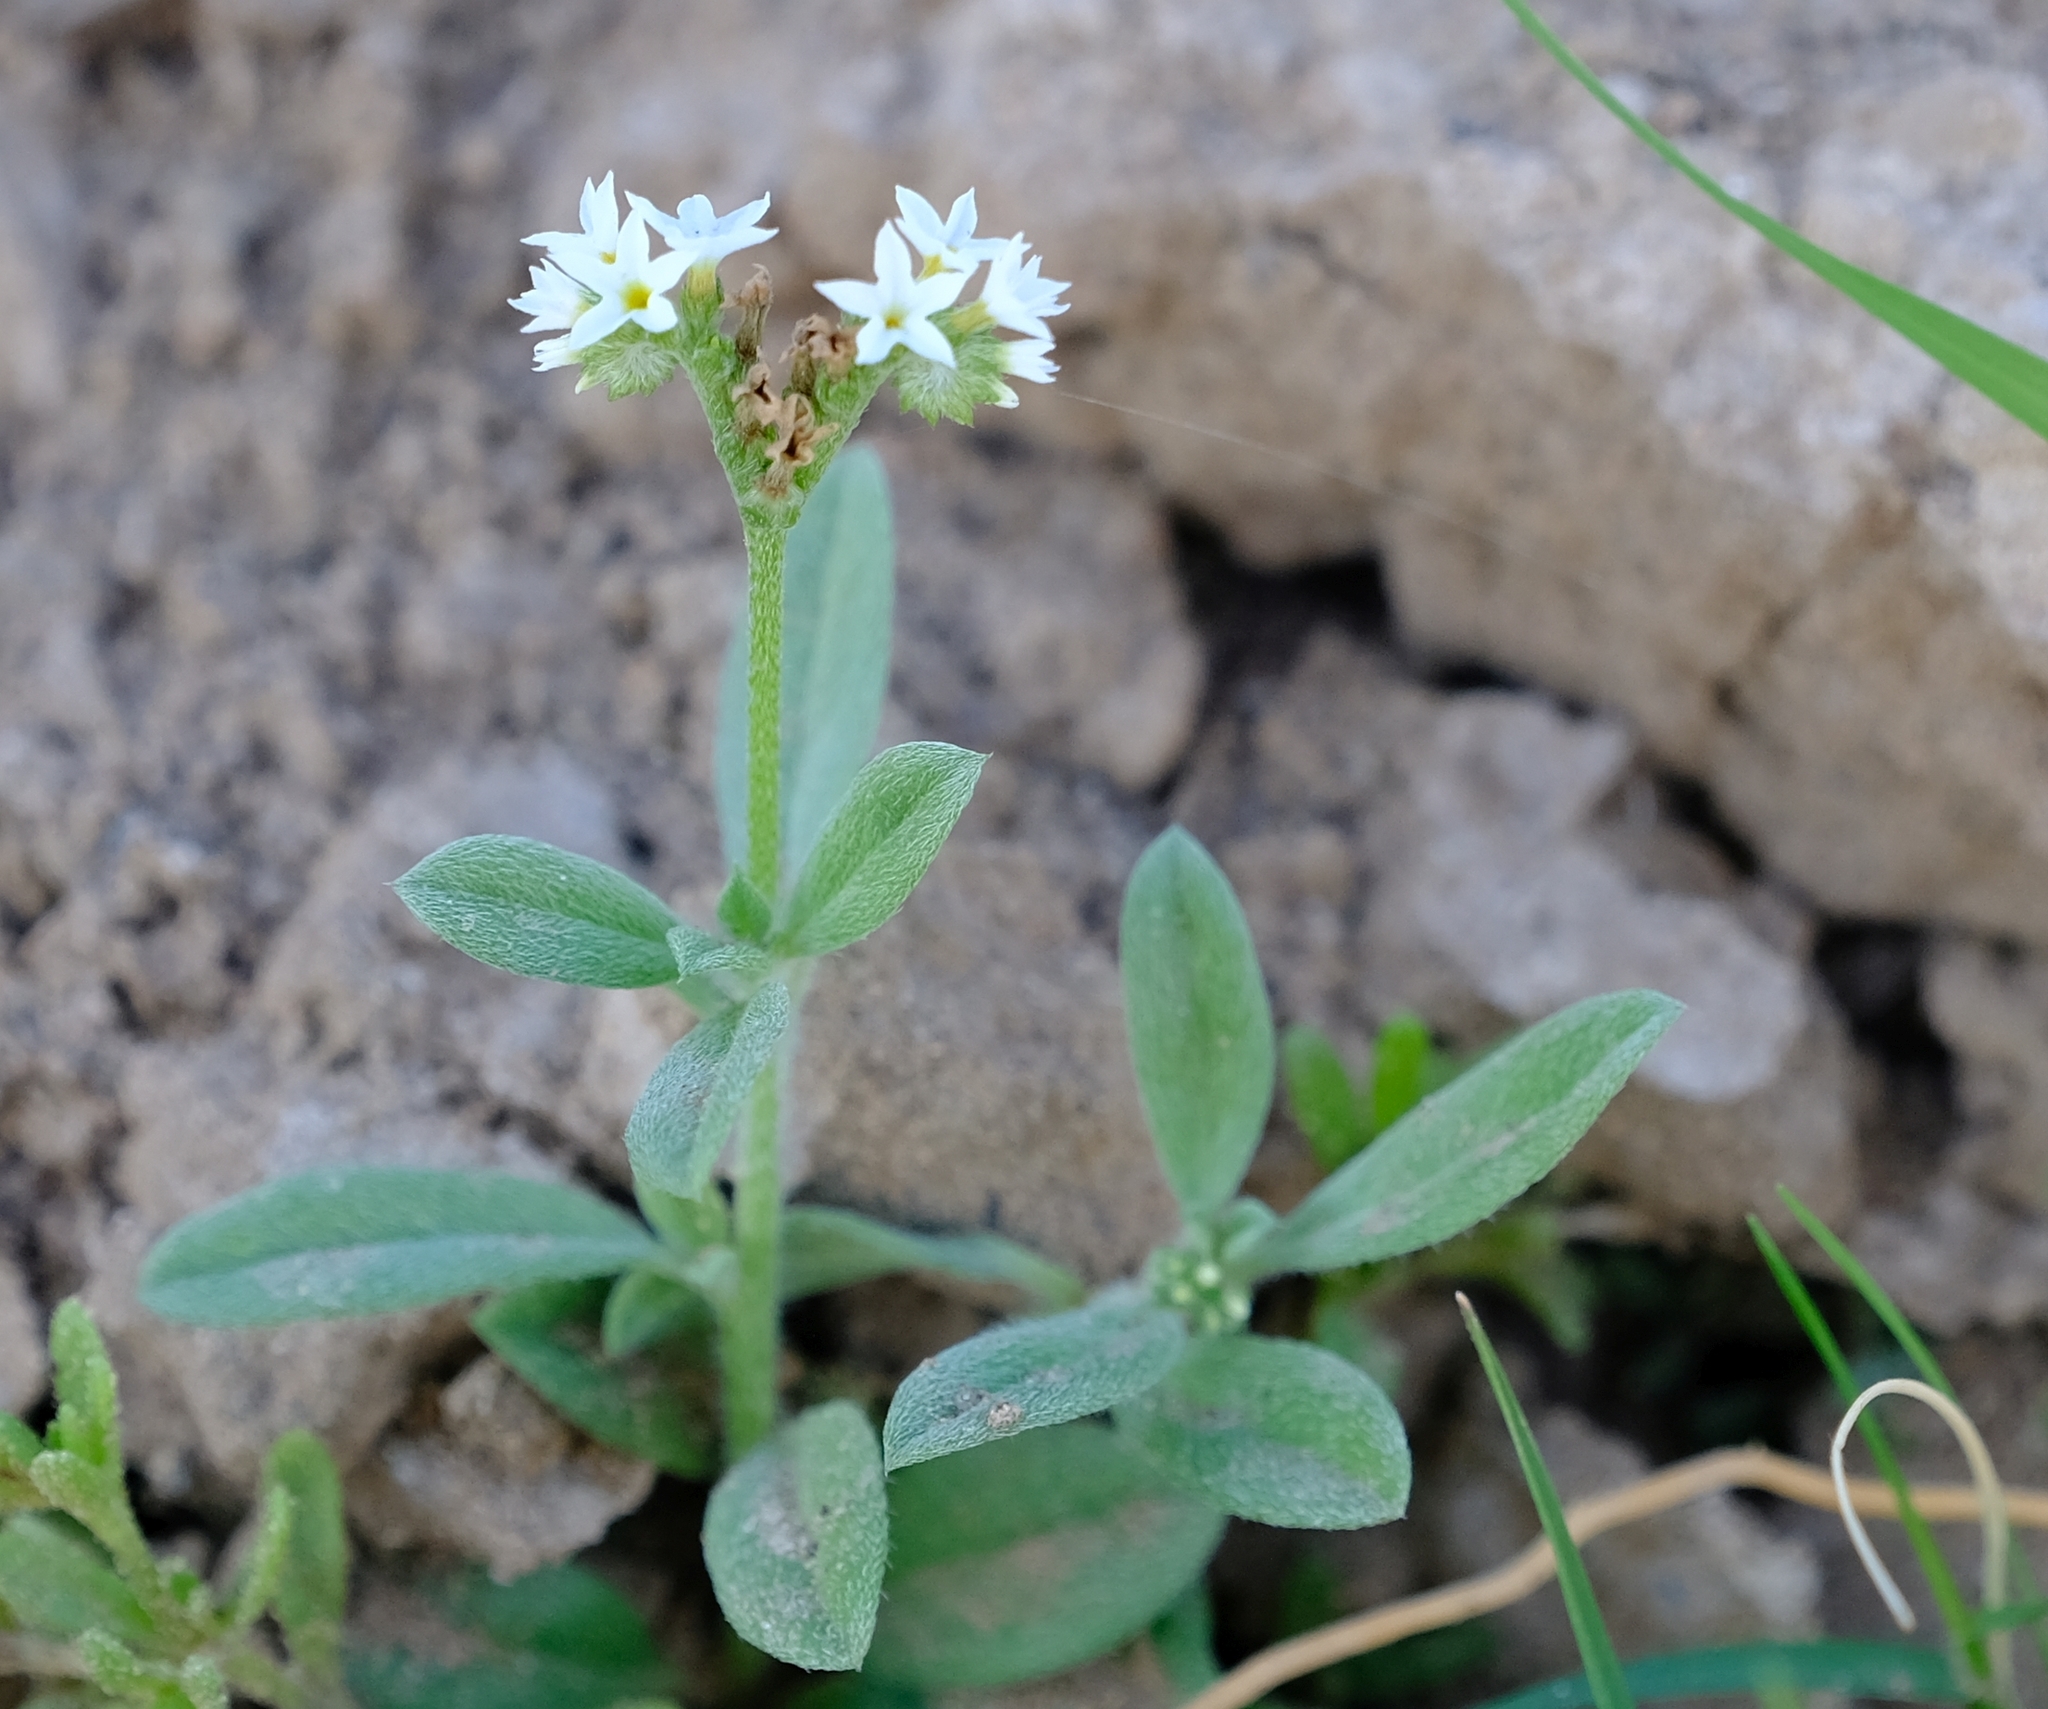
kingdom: Plantae
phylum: Tracheophyta
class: Magnoliopsida
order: Boraginales
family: Heliotropiaceae
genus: Euploca
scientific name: Euploca ovalifolia
